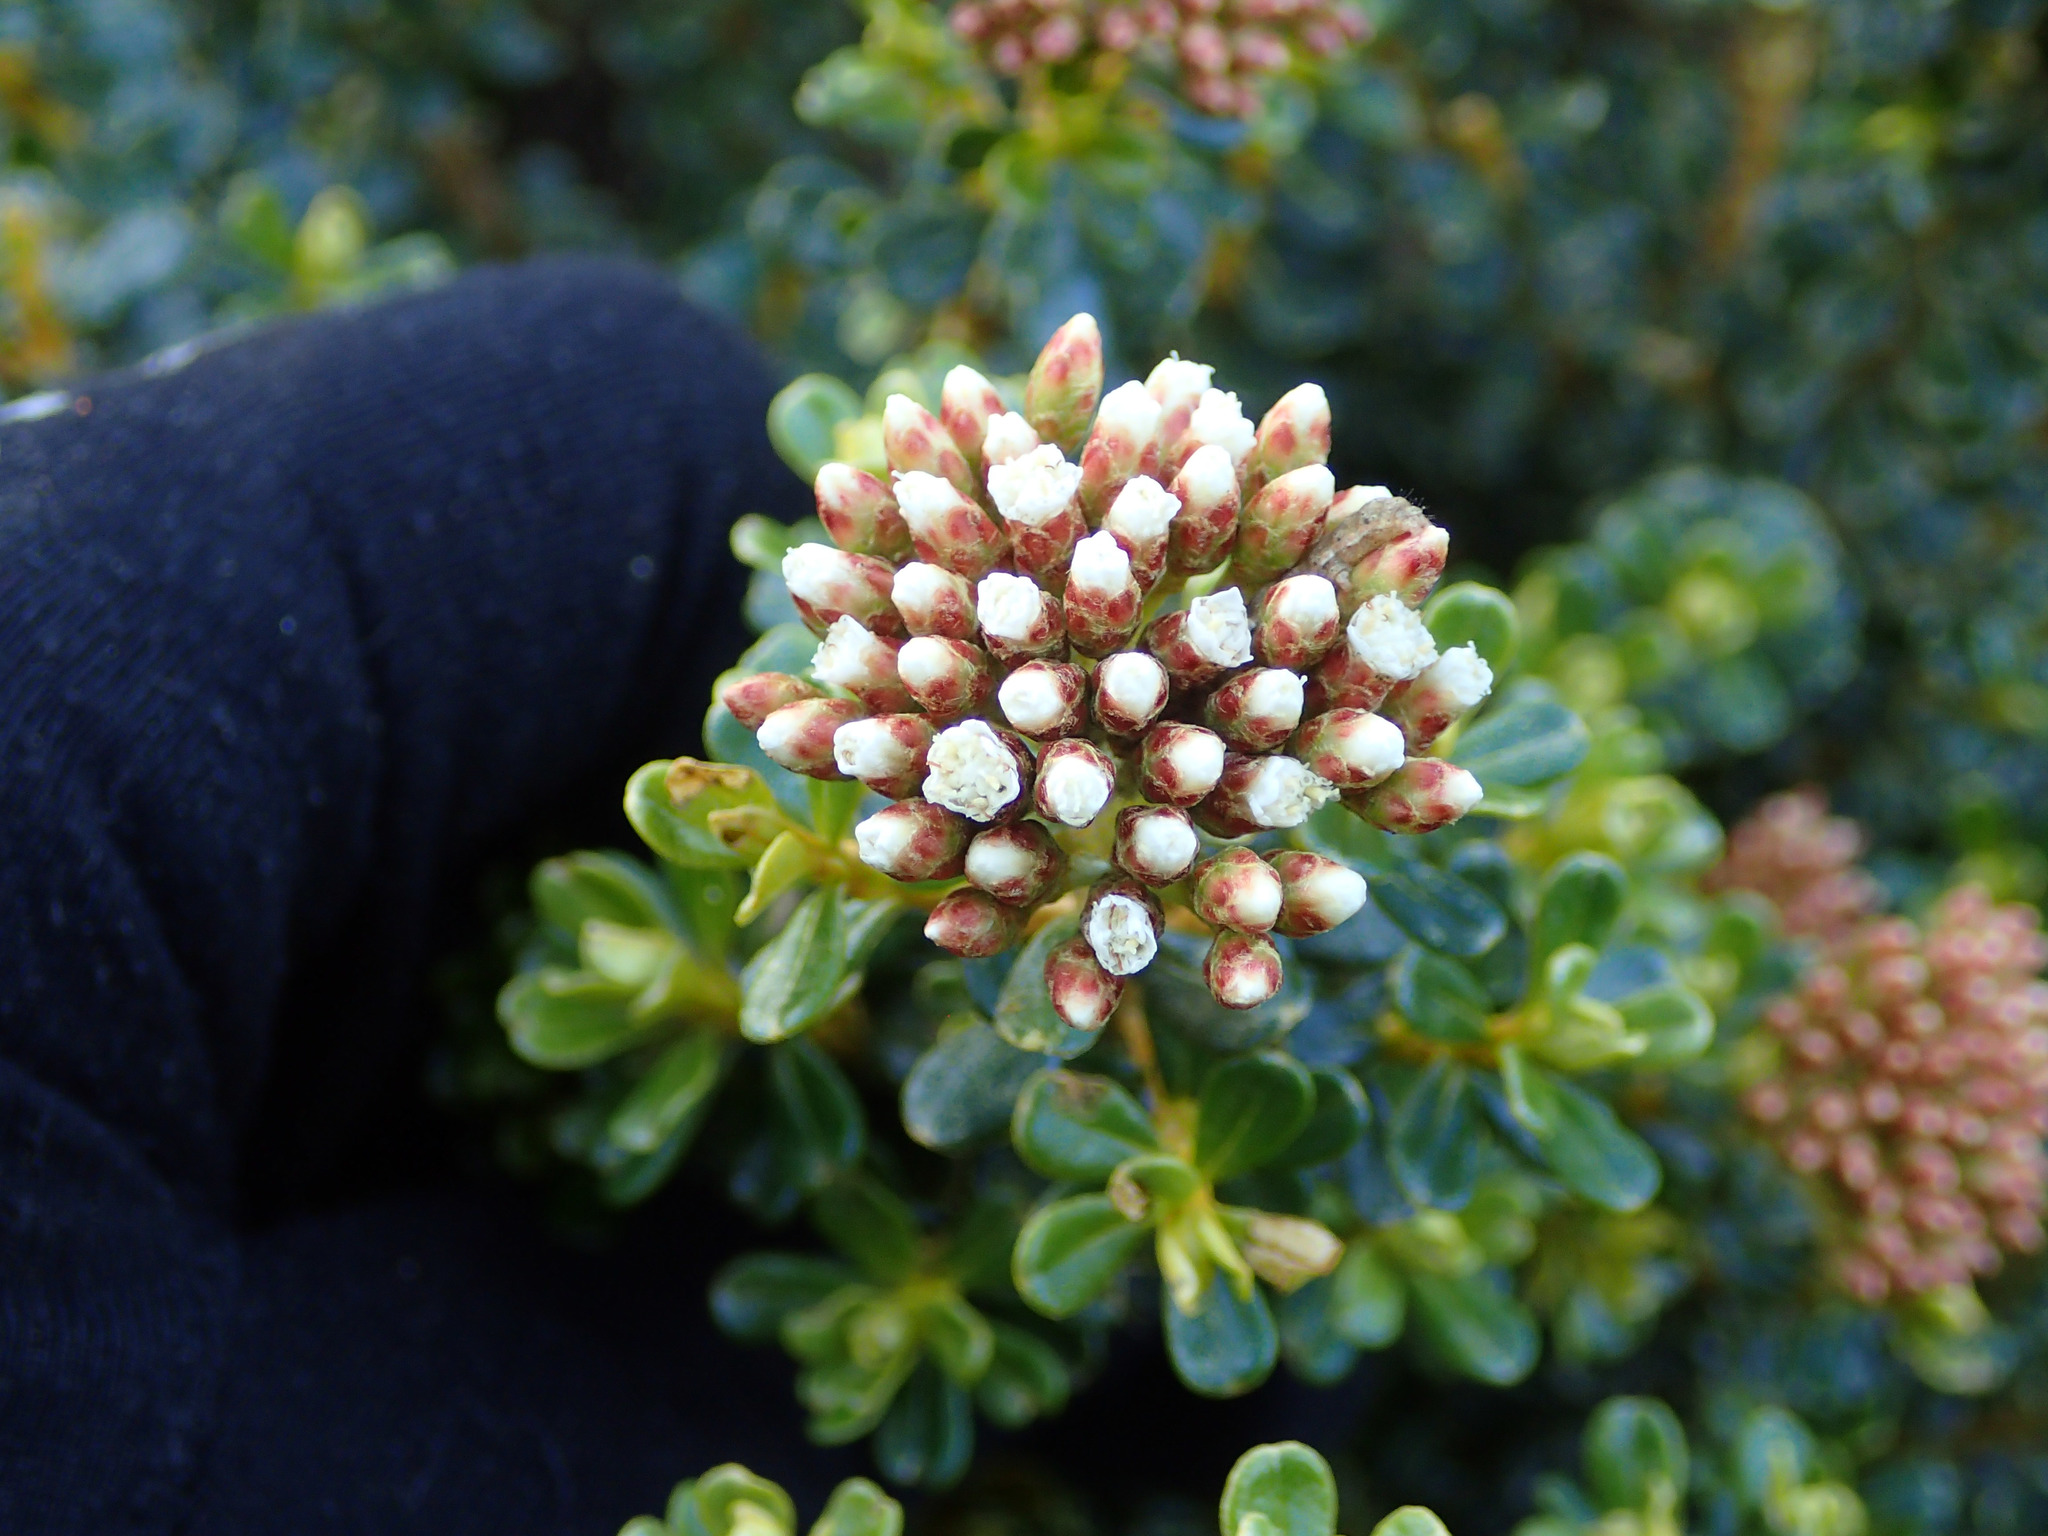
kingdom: Plantae
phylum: Tracheophyta
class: Magnoliopsida
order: Asterales
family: Asteraceae
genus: Ozothamnus
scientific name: Ozothamnus leptophyllus
